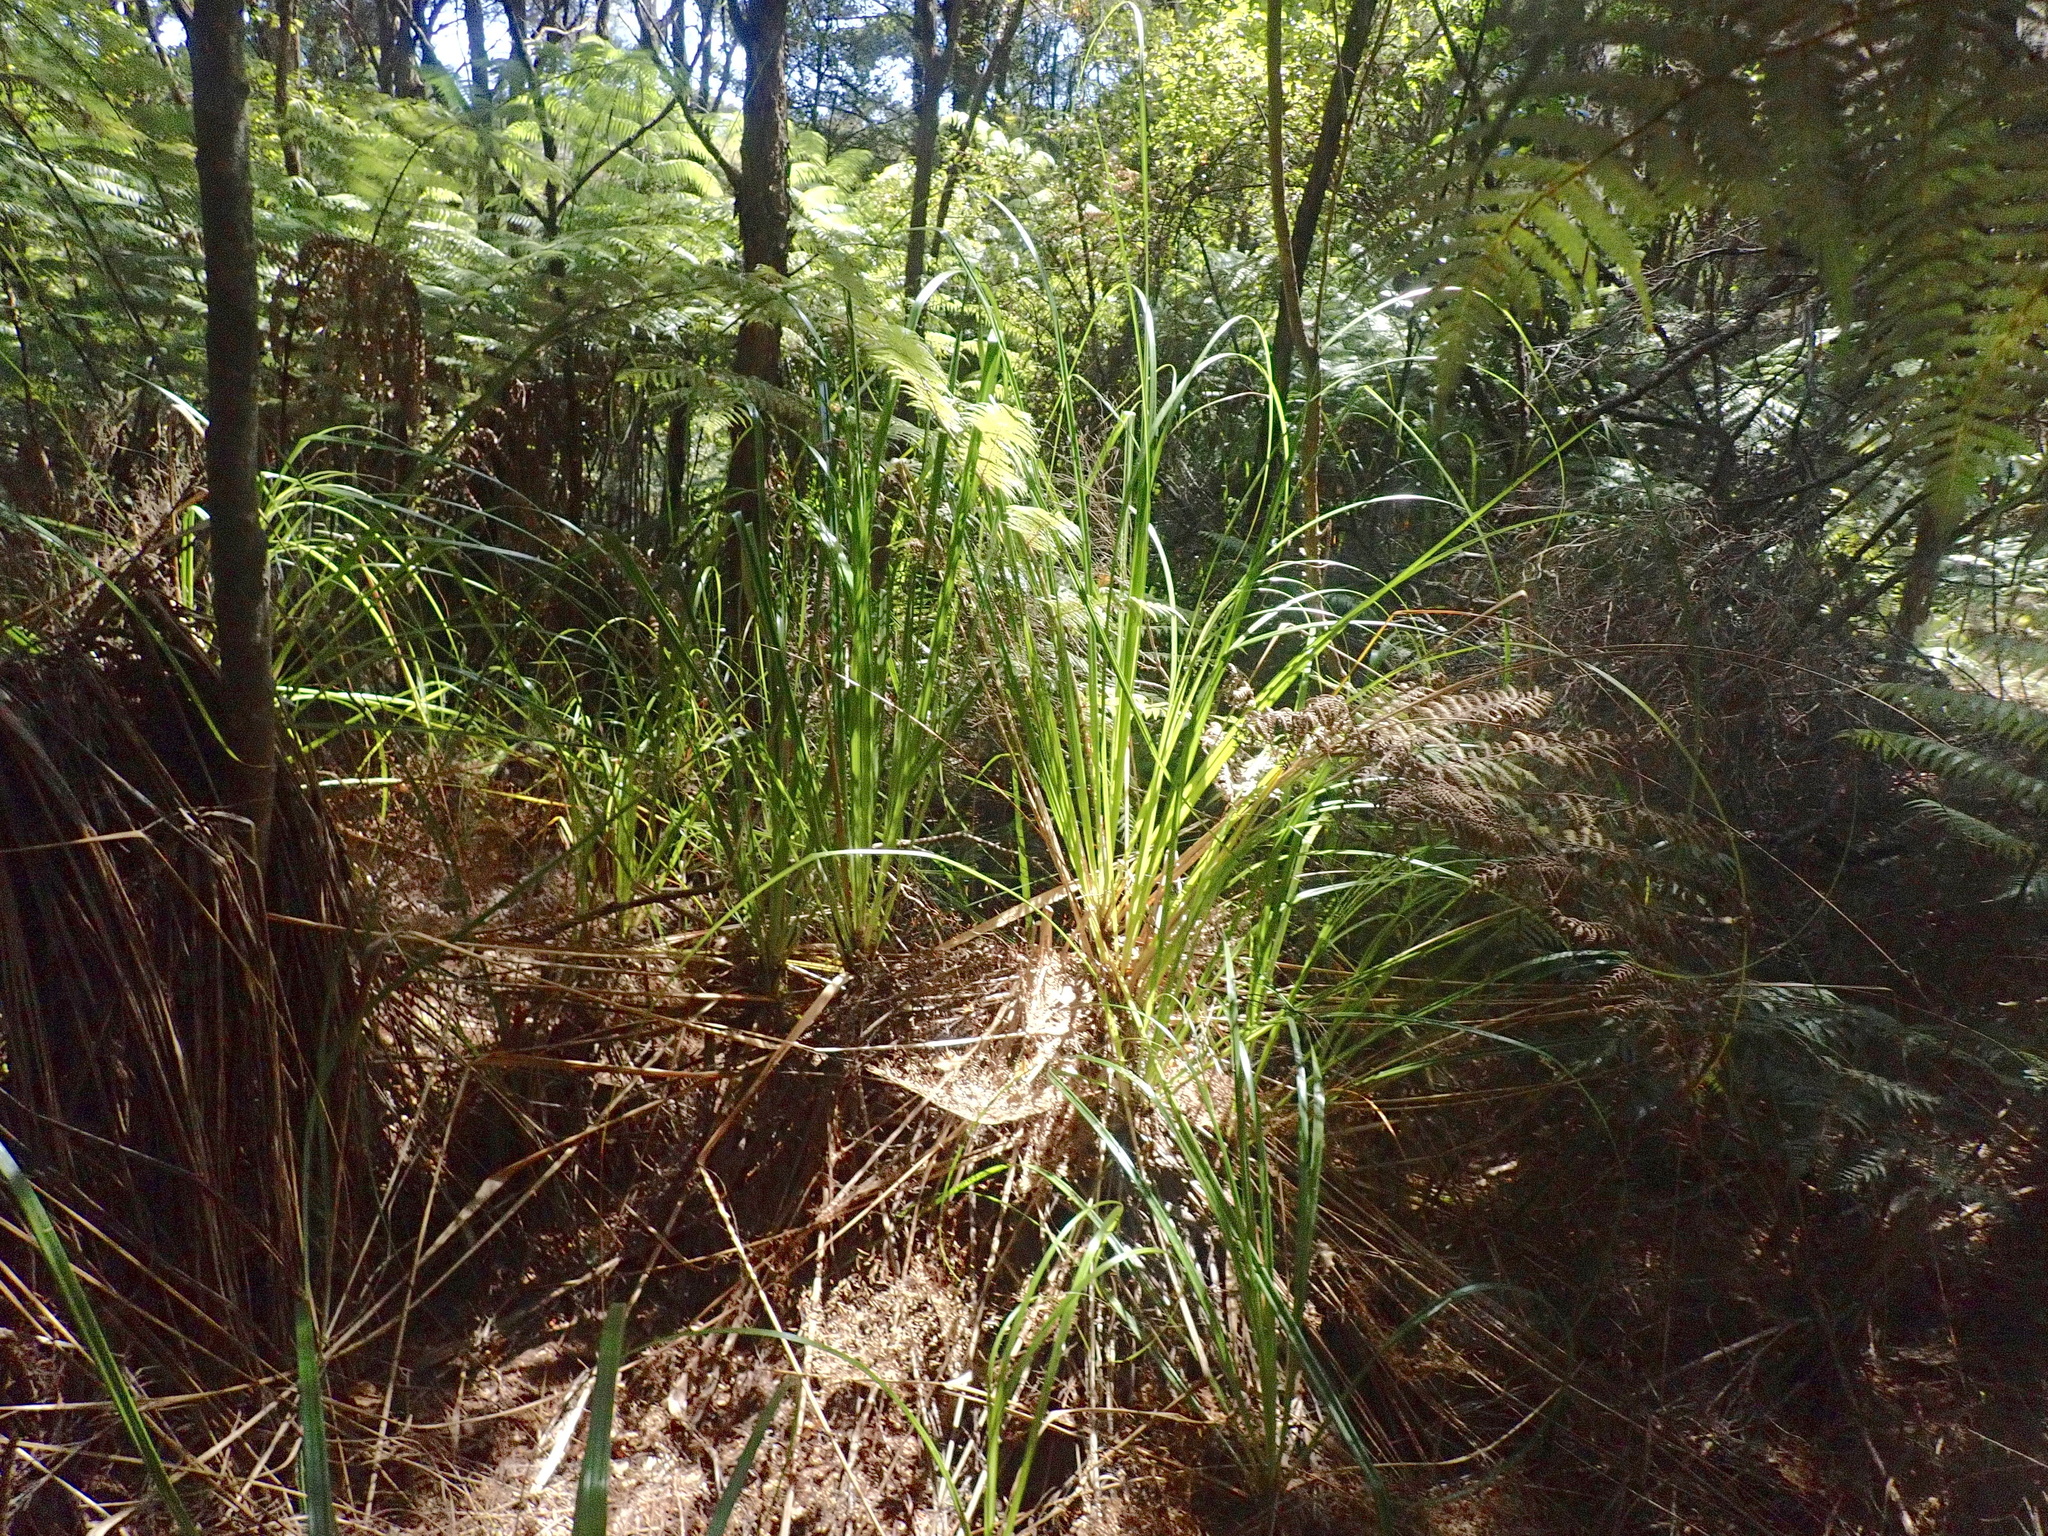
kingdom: Plantae
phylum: Tracheophyta
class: Liliopsida
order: Poales
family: Cyperaceae
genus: Gahnia
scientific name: Gahnia xanthocarpa
